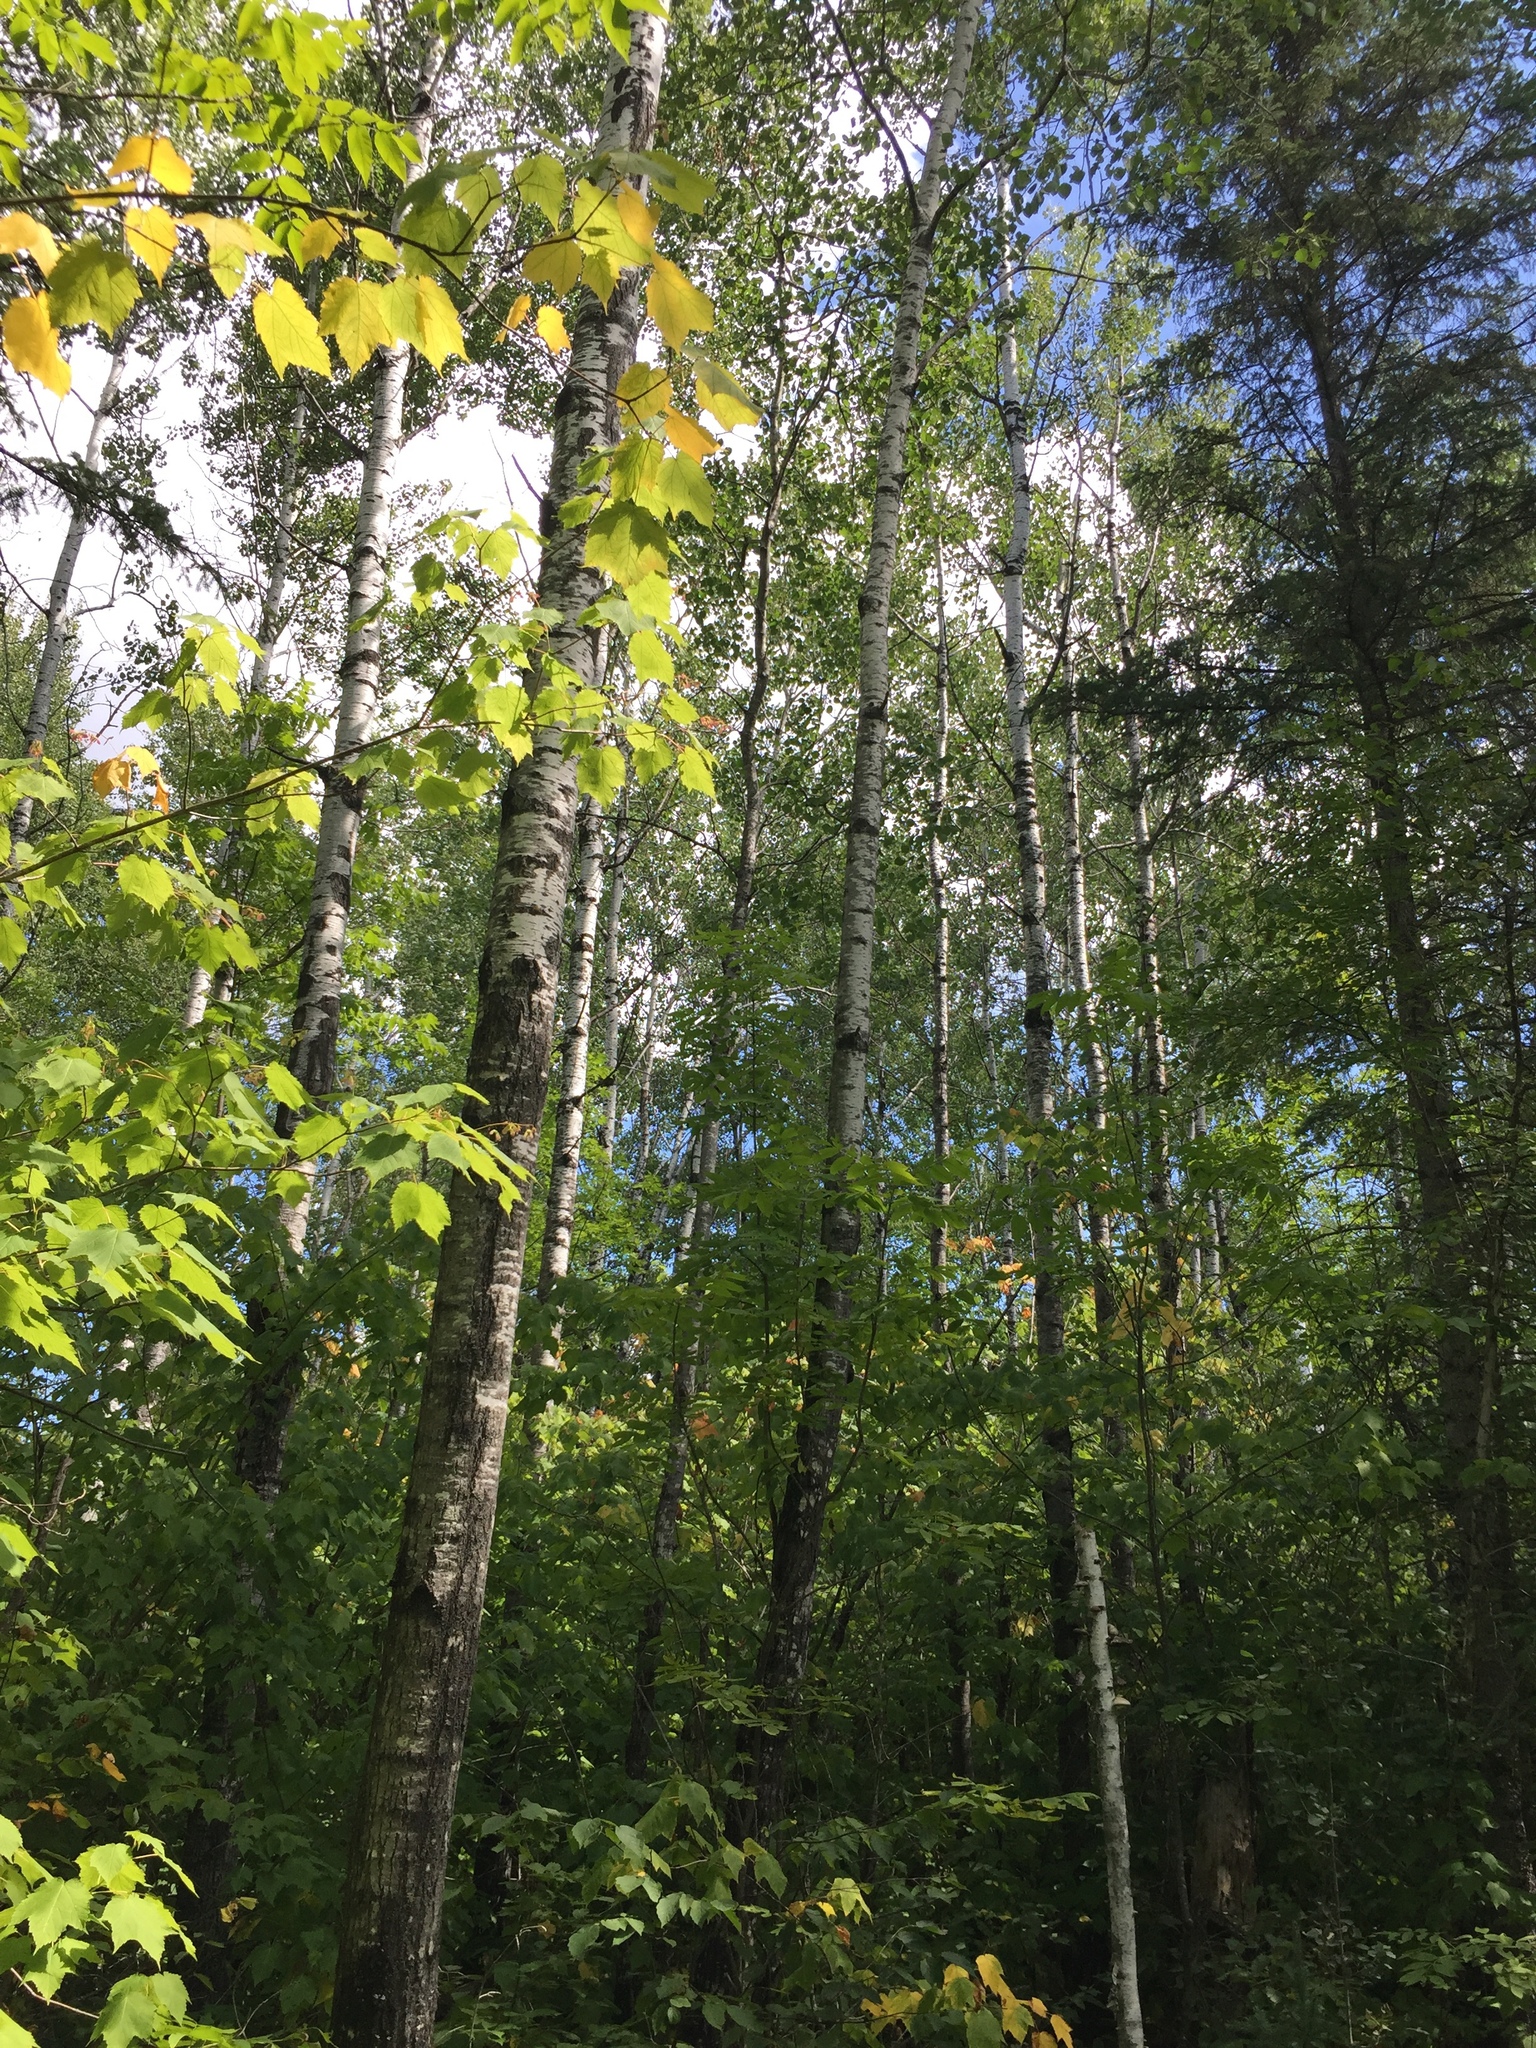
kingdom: Plantae
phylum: Tracheophyta
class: Magnoliopsida
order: Malpighiales
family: Salicaceae
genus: Populus
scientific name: Populus tremuloides
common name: Quaking aspen
